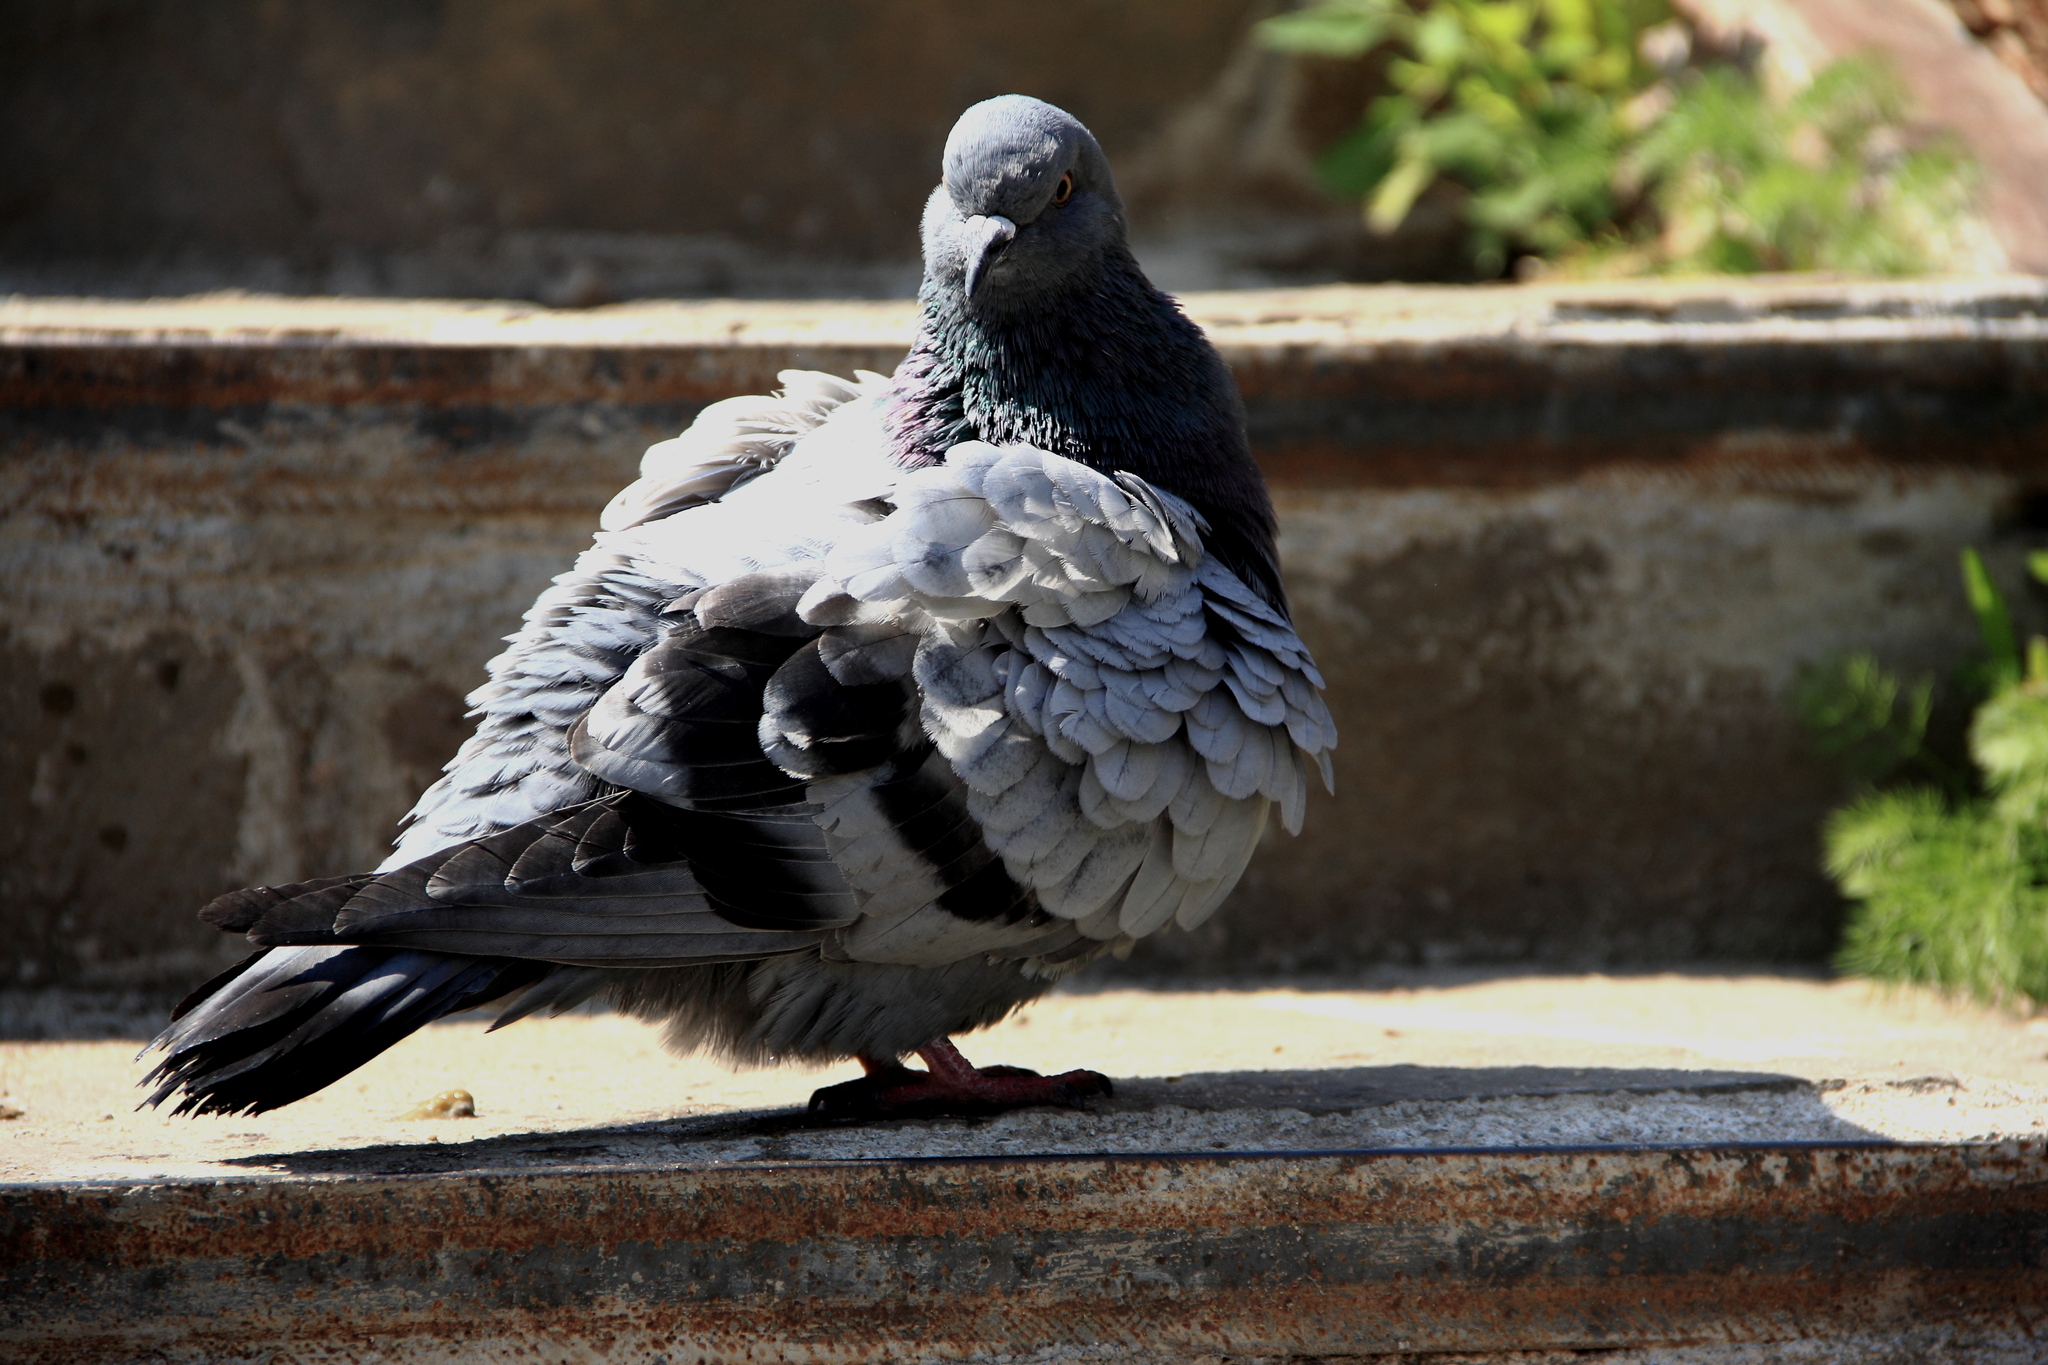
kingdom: Animalia
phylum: Chordata
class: Aves
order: Columbiformes
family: Columbidae
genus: Columba
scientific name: Columba livia
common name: Rock pigeon
